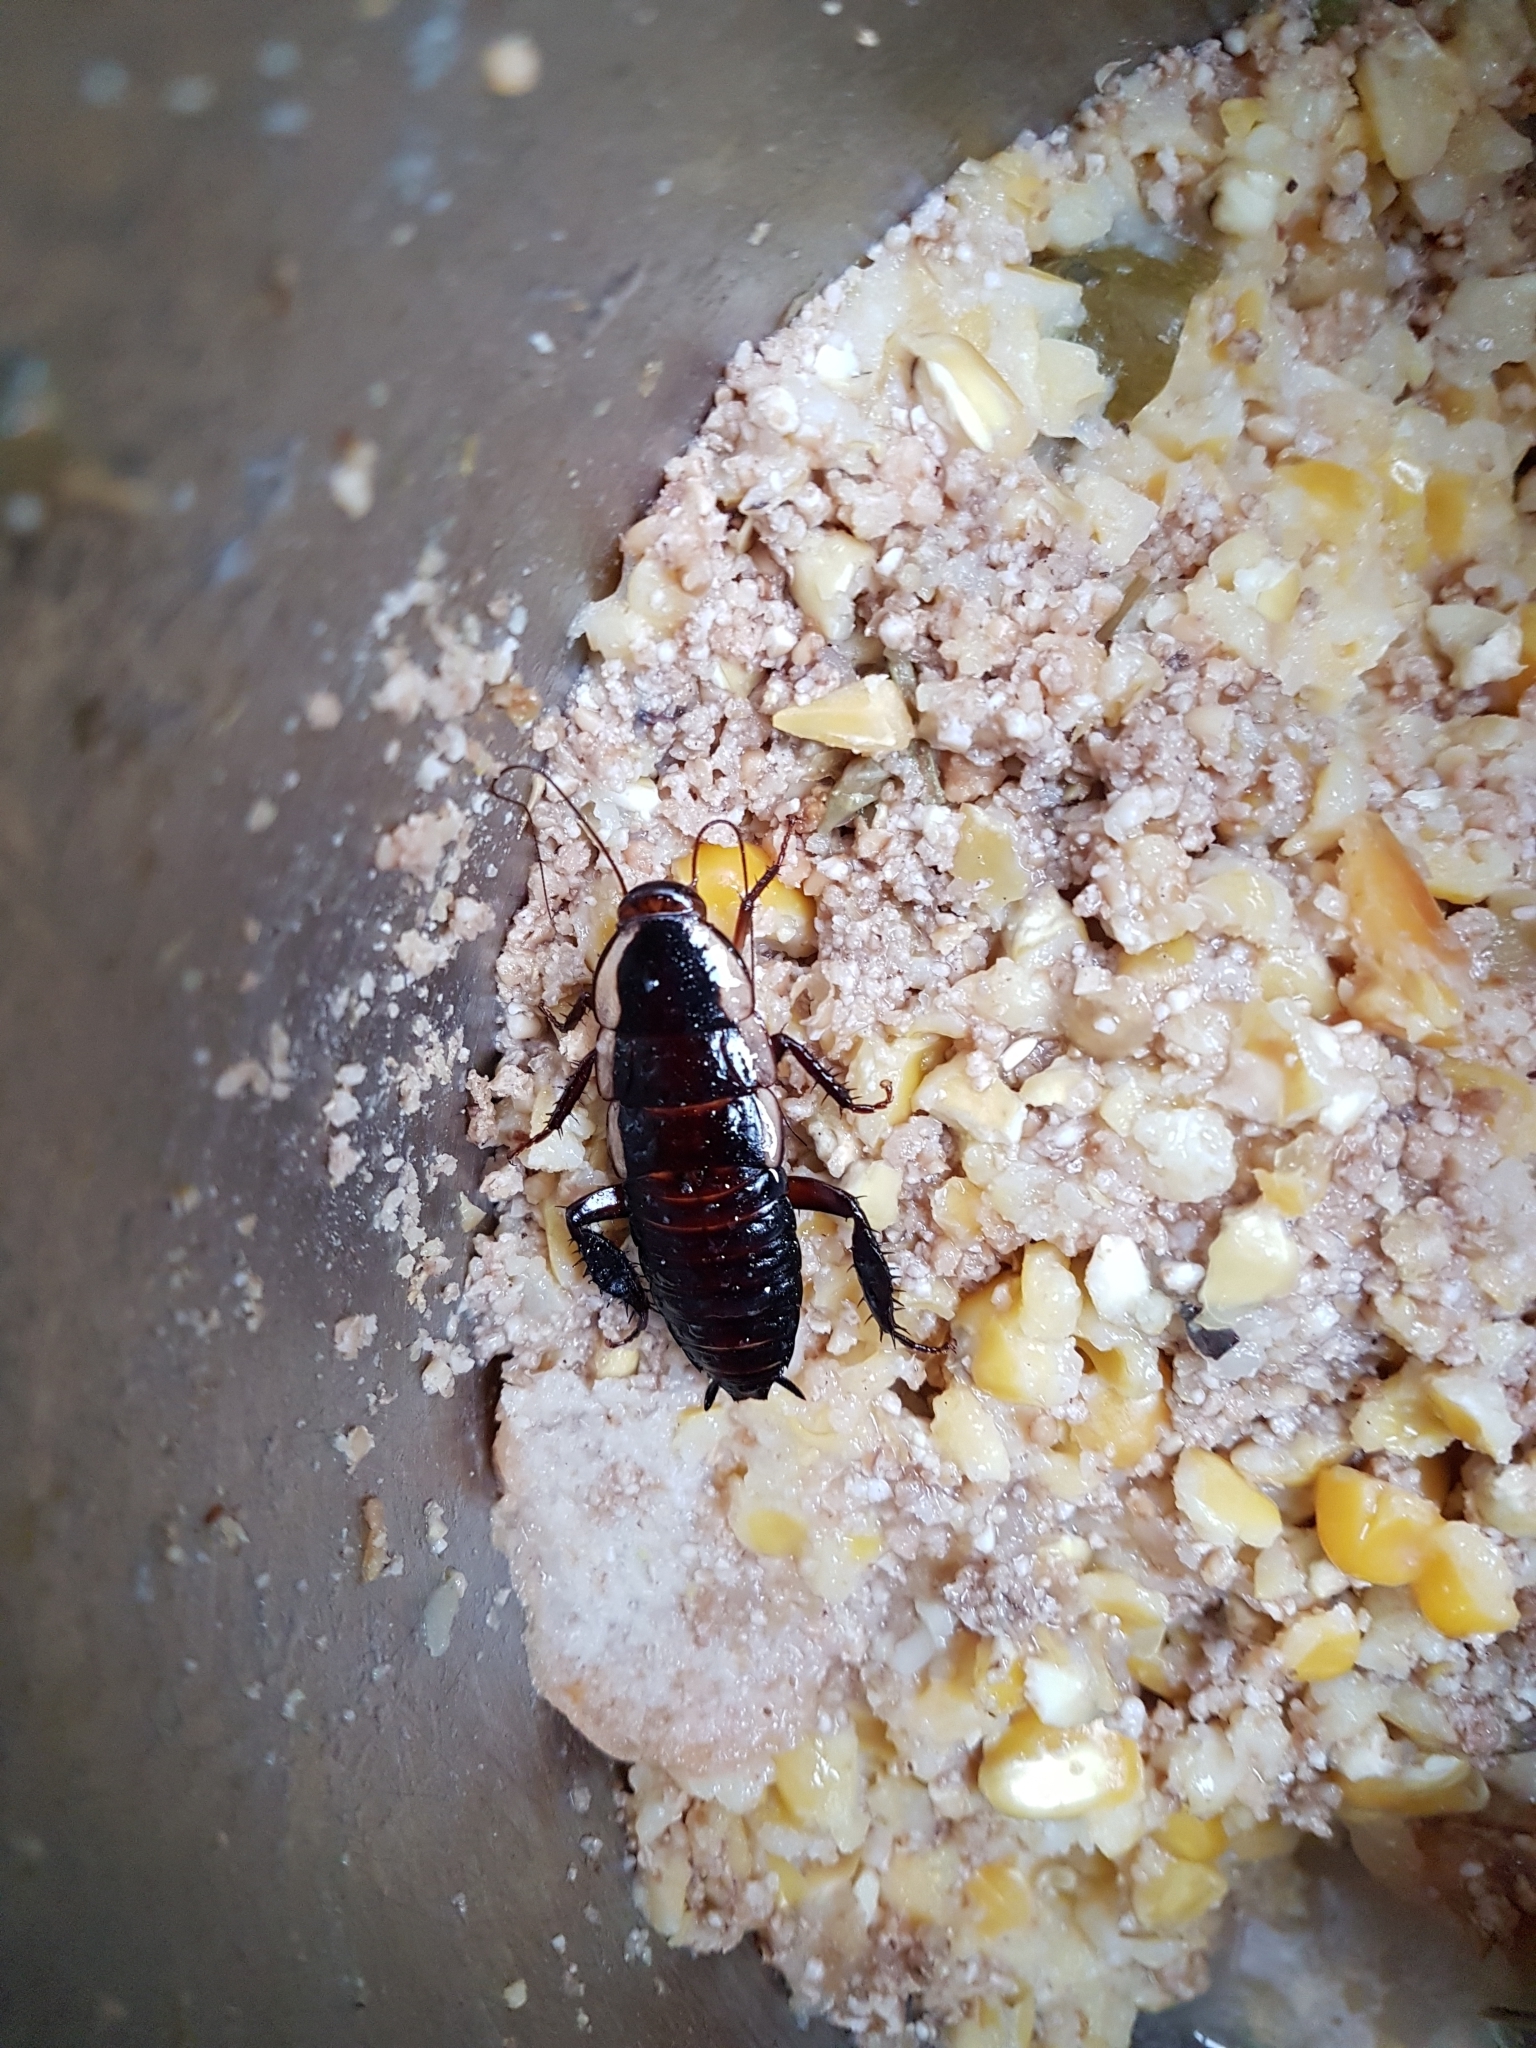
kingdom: Animalia
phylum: Arthropoda
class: Insecta
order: Blattodea
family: Blattidae
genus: Drymaplaneta
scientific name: Drymaplaneta semivitta
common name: Gisborne cockroach
